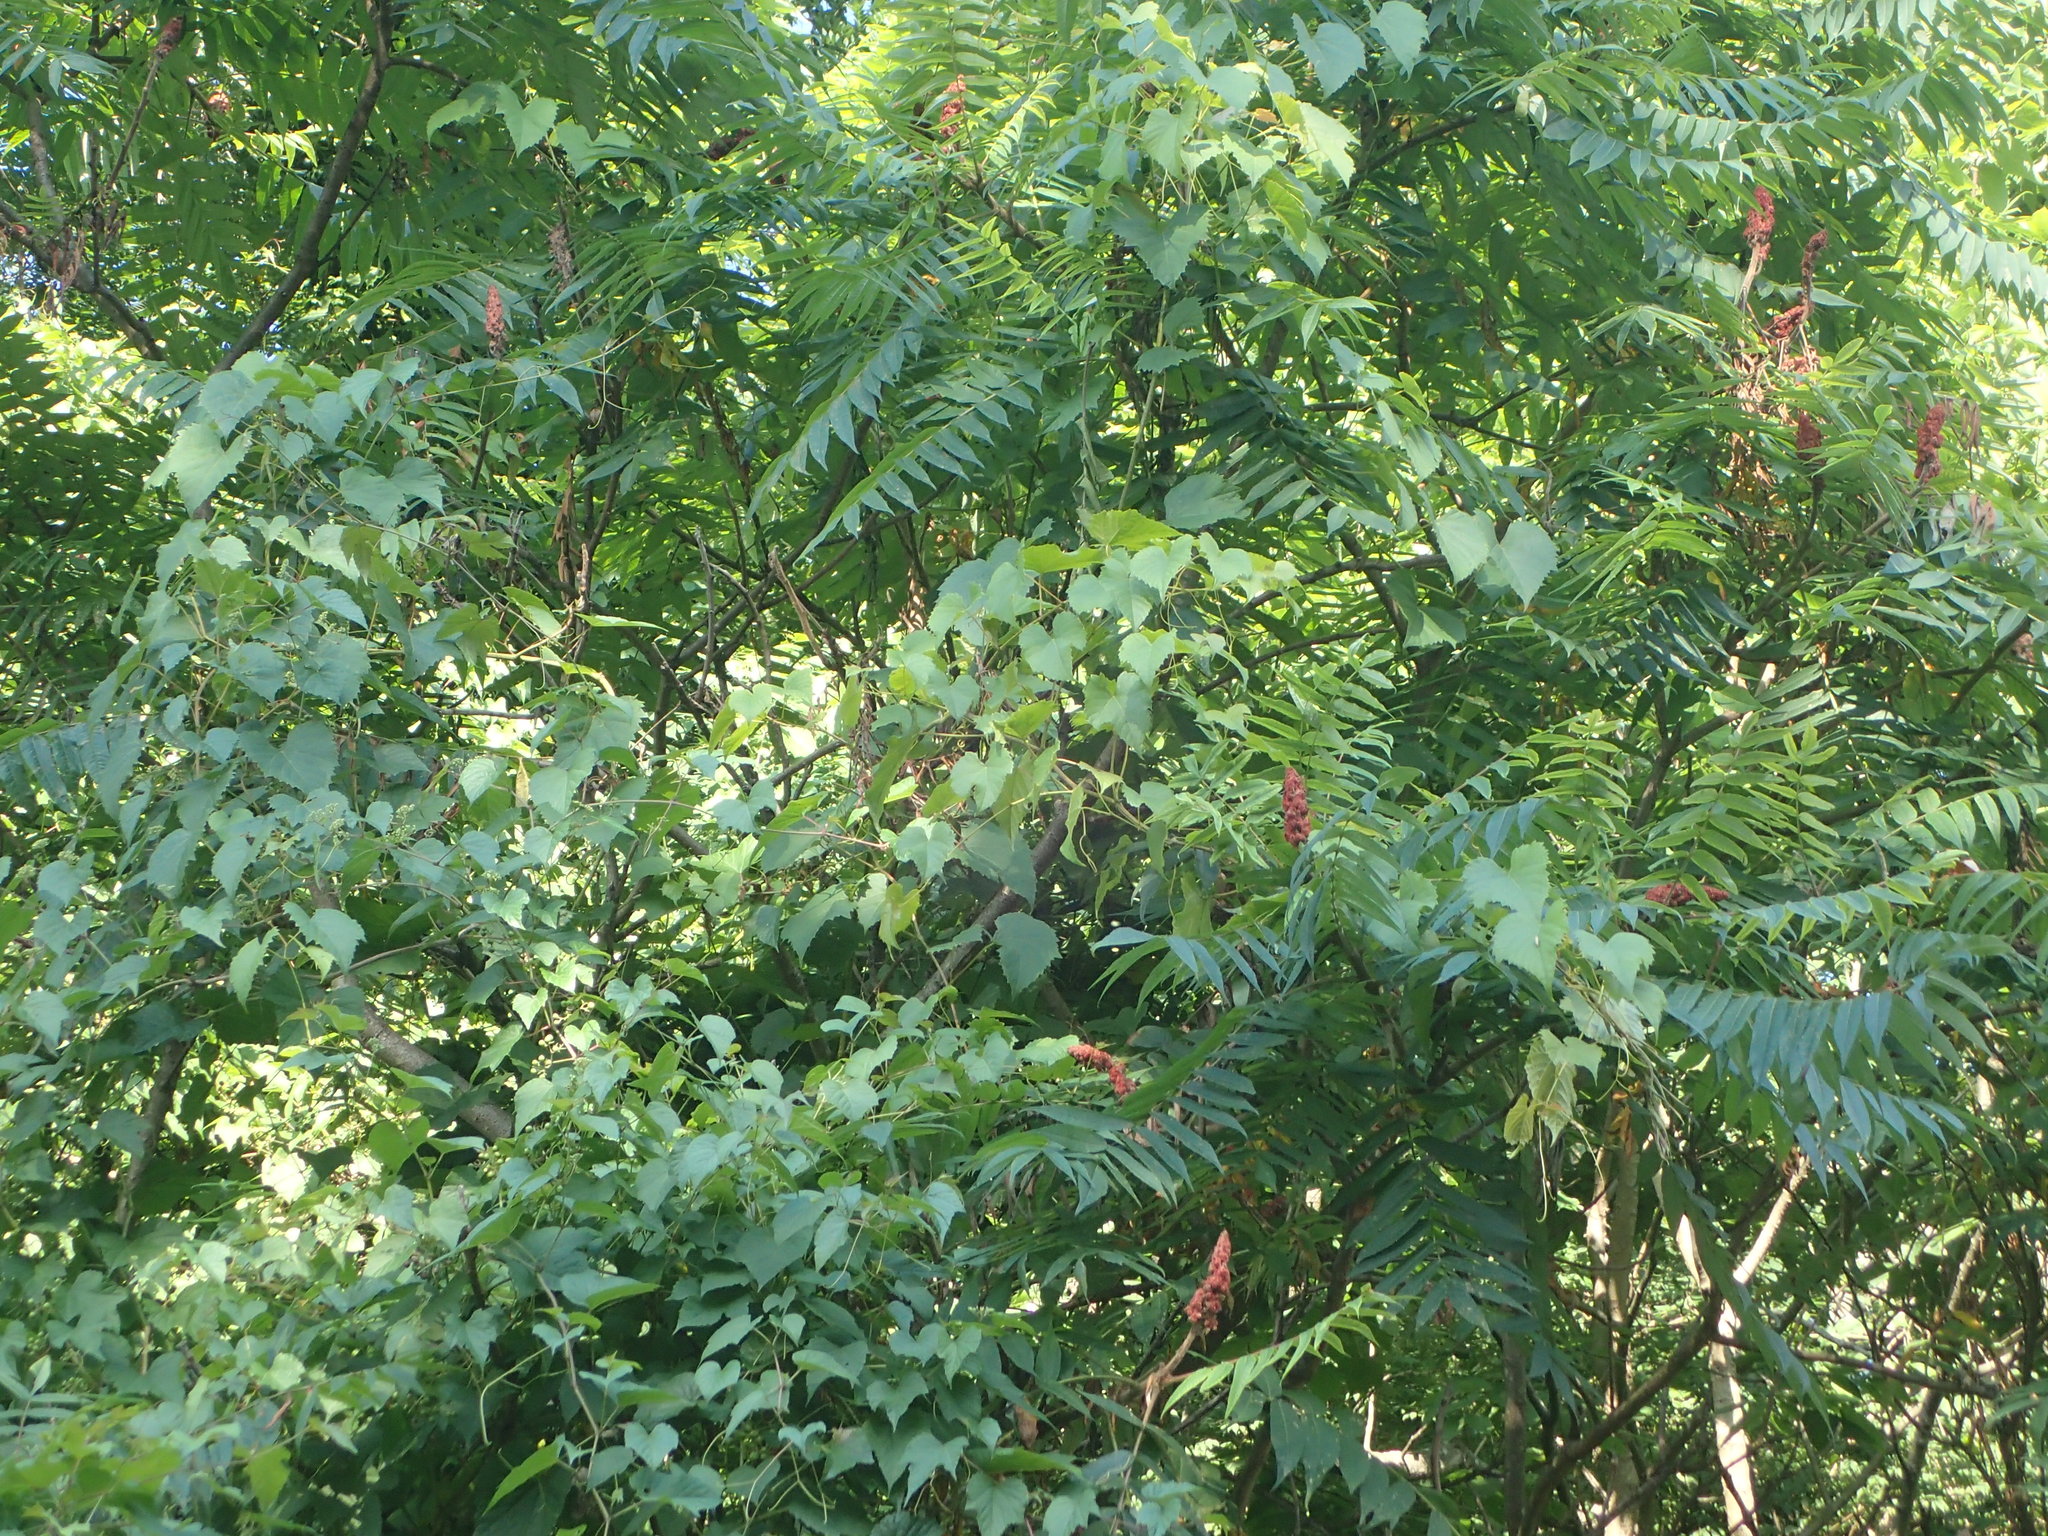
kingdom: Plantae
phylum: Tracheophyta
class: Magnoliopsida
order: Sapindales
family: Anacardiaceae
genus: Rhus
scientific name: Rhus typhina
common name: Staghorn sumac
